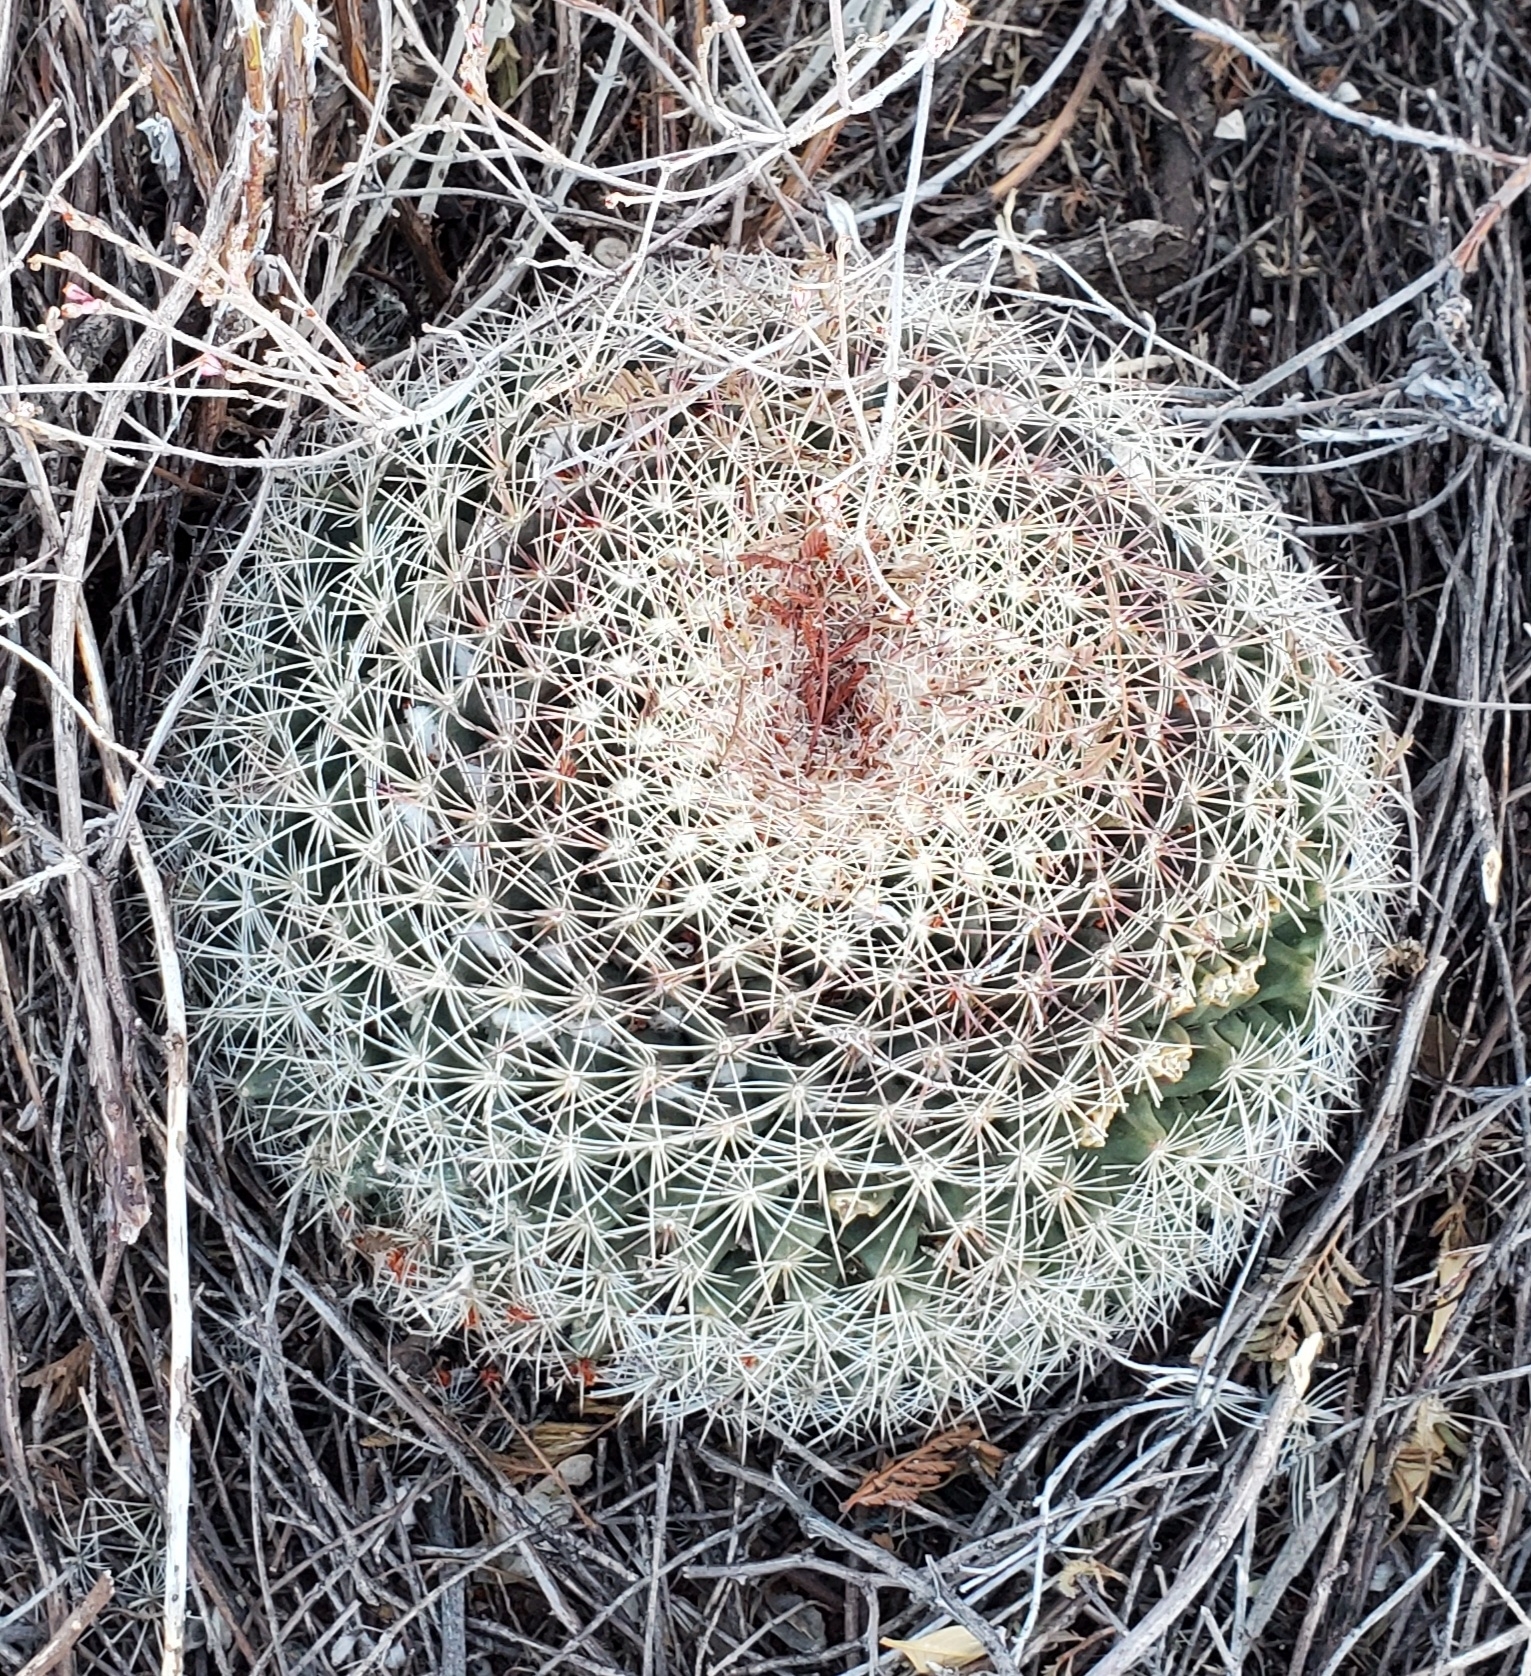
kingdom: Plantae
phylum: Tracheophyta
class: Magnoliopsida
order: Caryophyllales
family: Cactaceae
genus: Mammillaria
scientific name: Mammillaria heyderi
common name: Little nipple cactus
